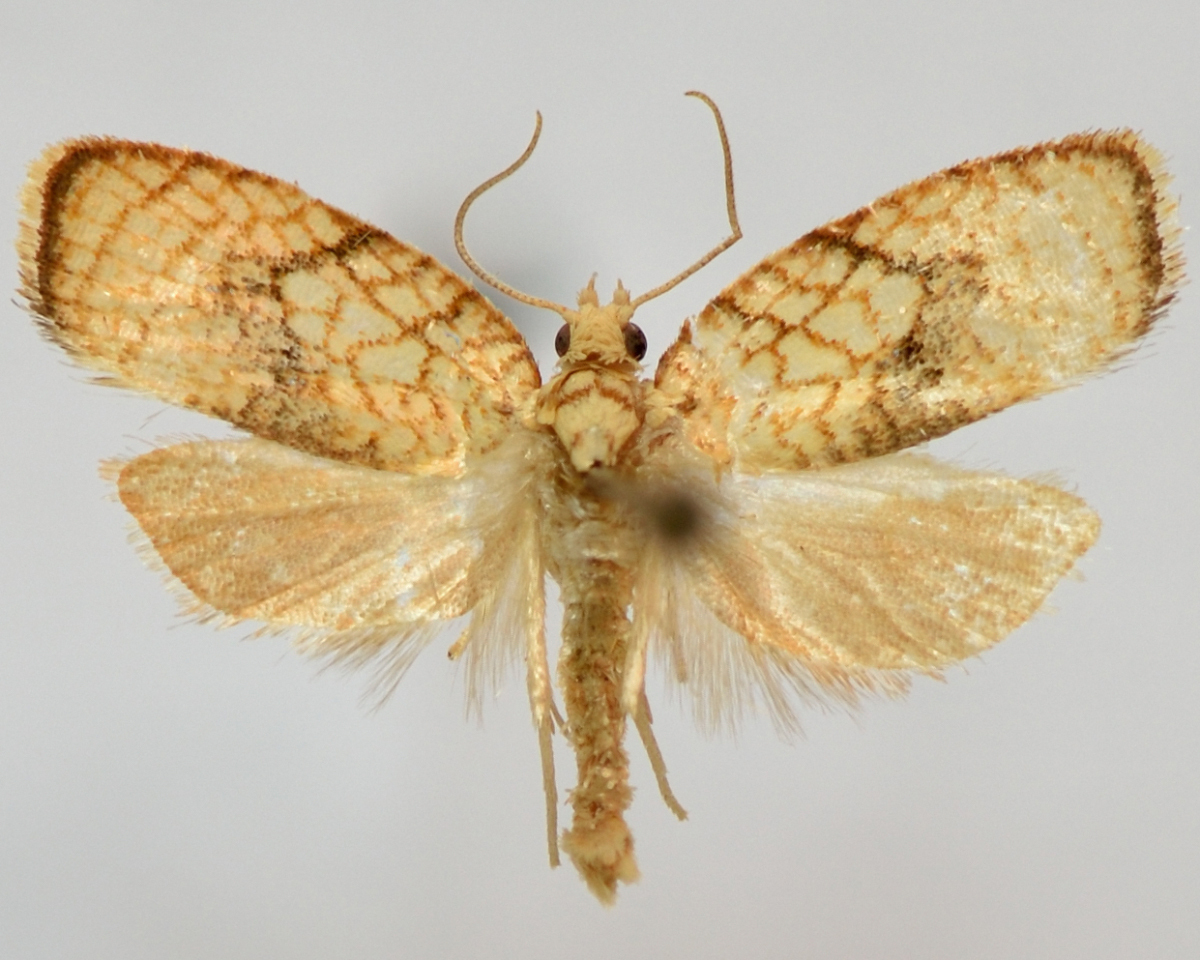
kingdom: Animalia
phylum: Arthropoda
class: Insecta
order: Lepidoptera
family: Tortricidae
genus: Acleris
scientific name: Acleris forsskaleana
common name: Maple button
